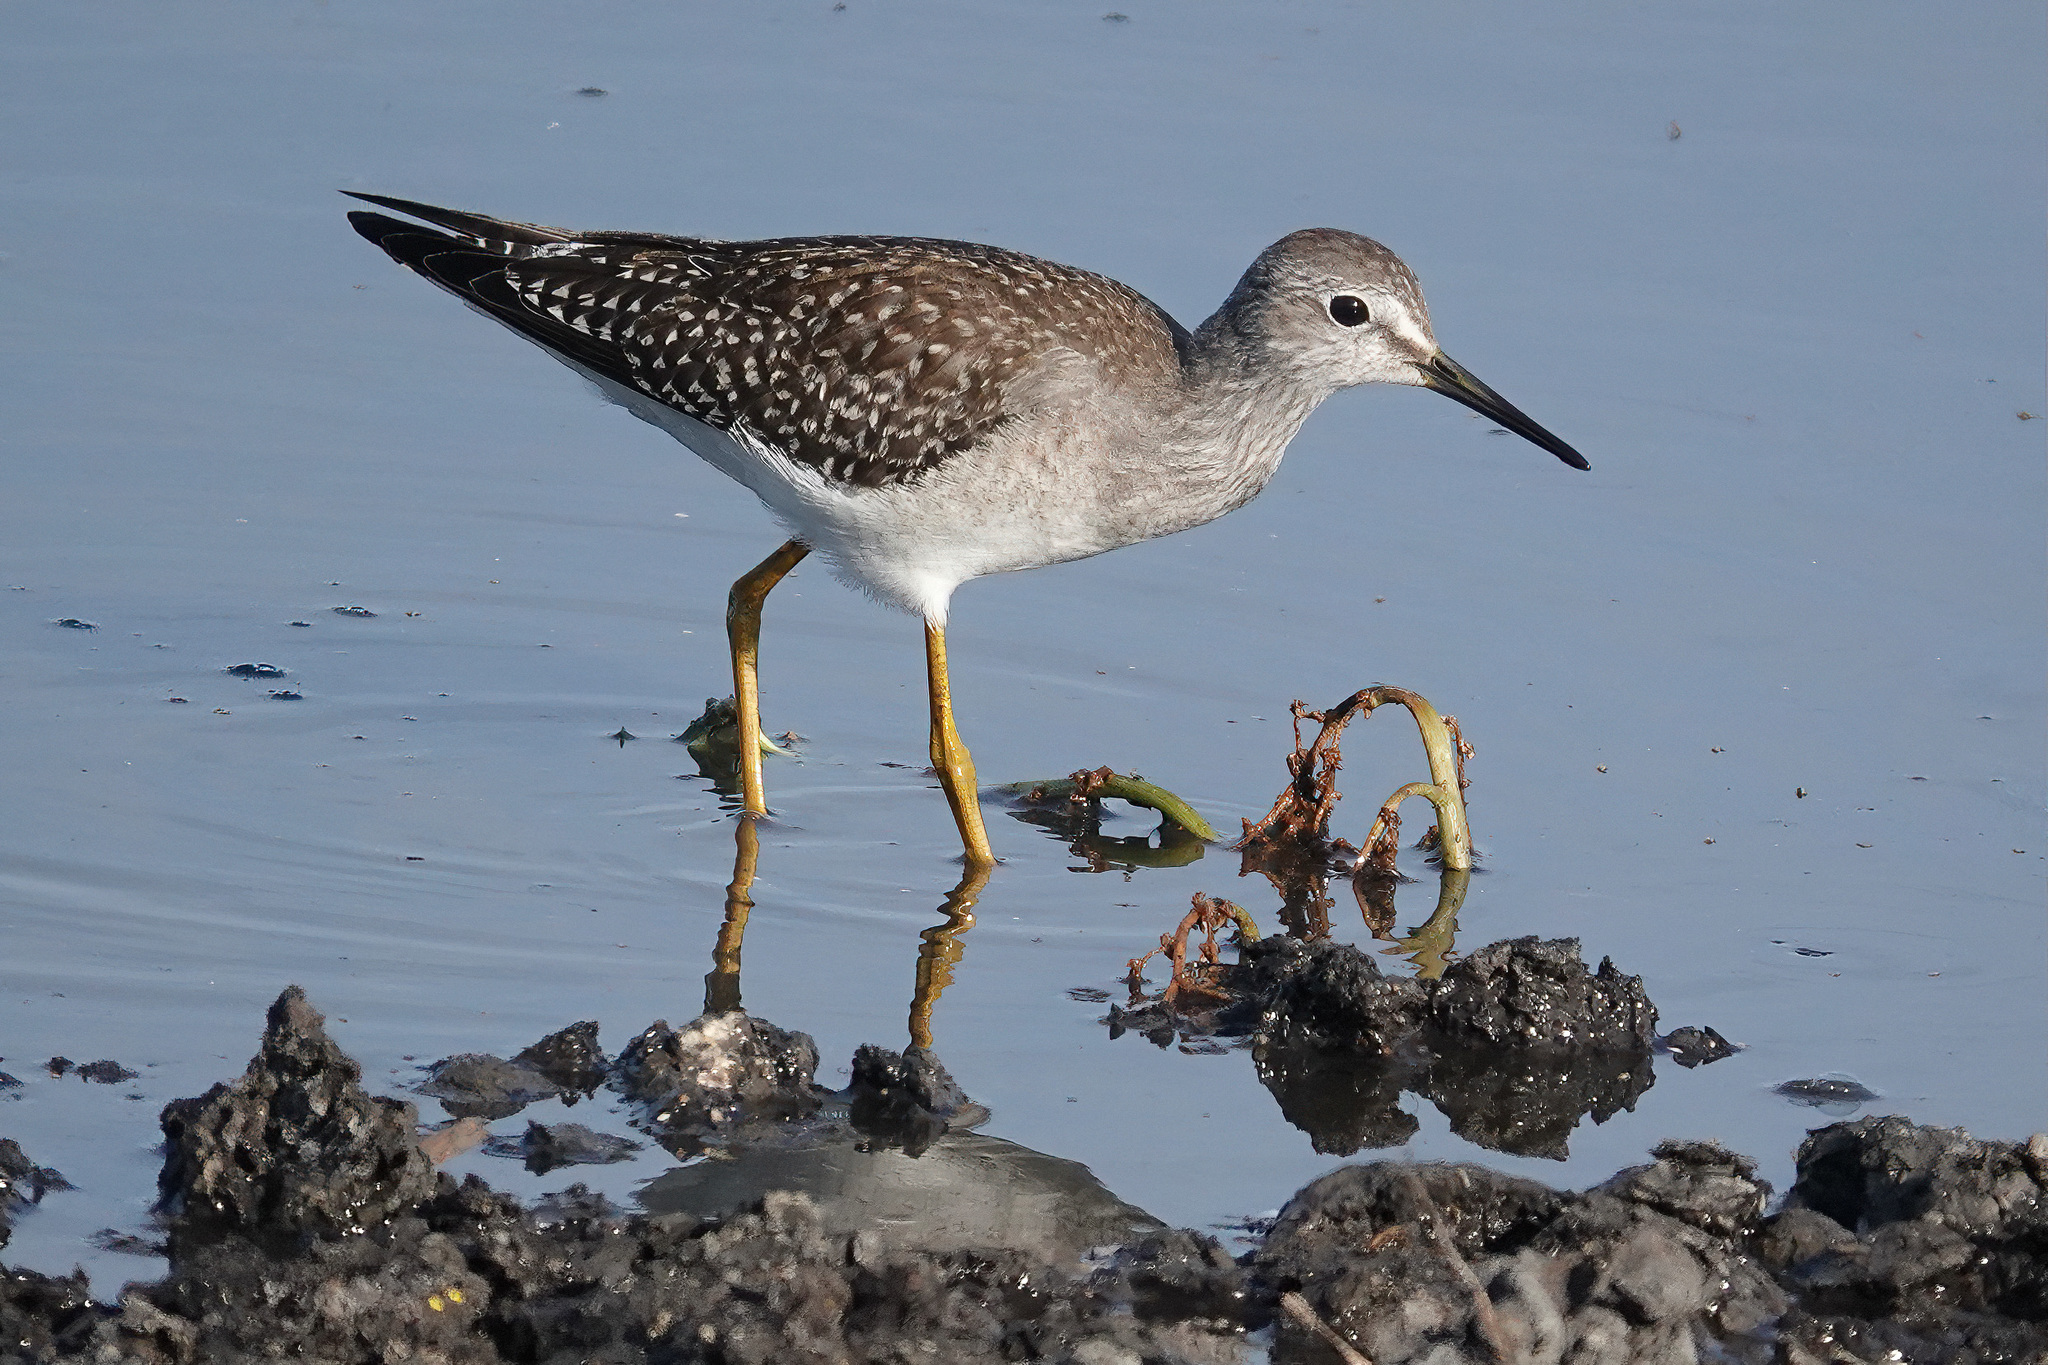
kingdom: Animalia
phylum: Chordata
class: Aves
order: Charadriiformes
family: Scolopacidae
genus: Tringa
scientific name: Tringa flavipes
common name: Lesser yellowlegs
